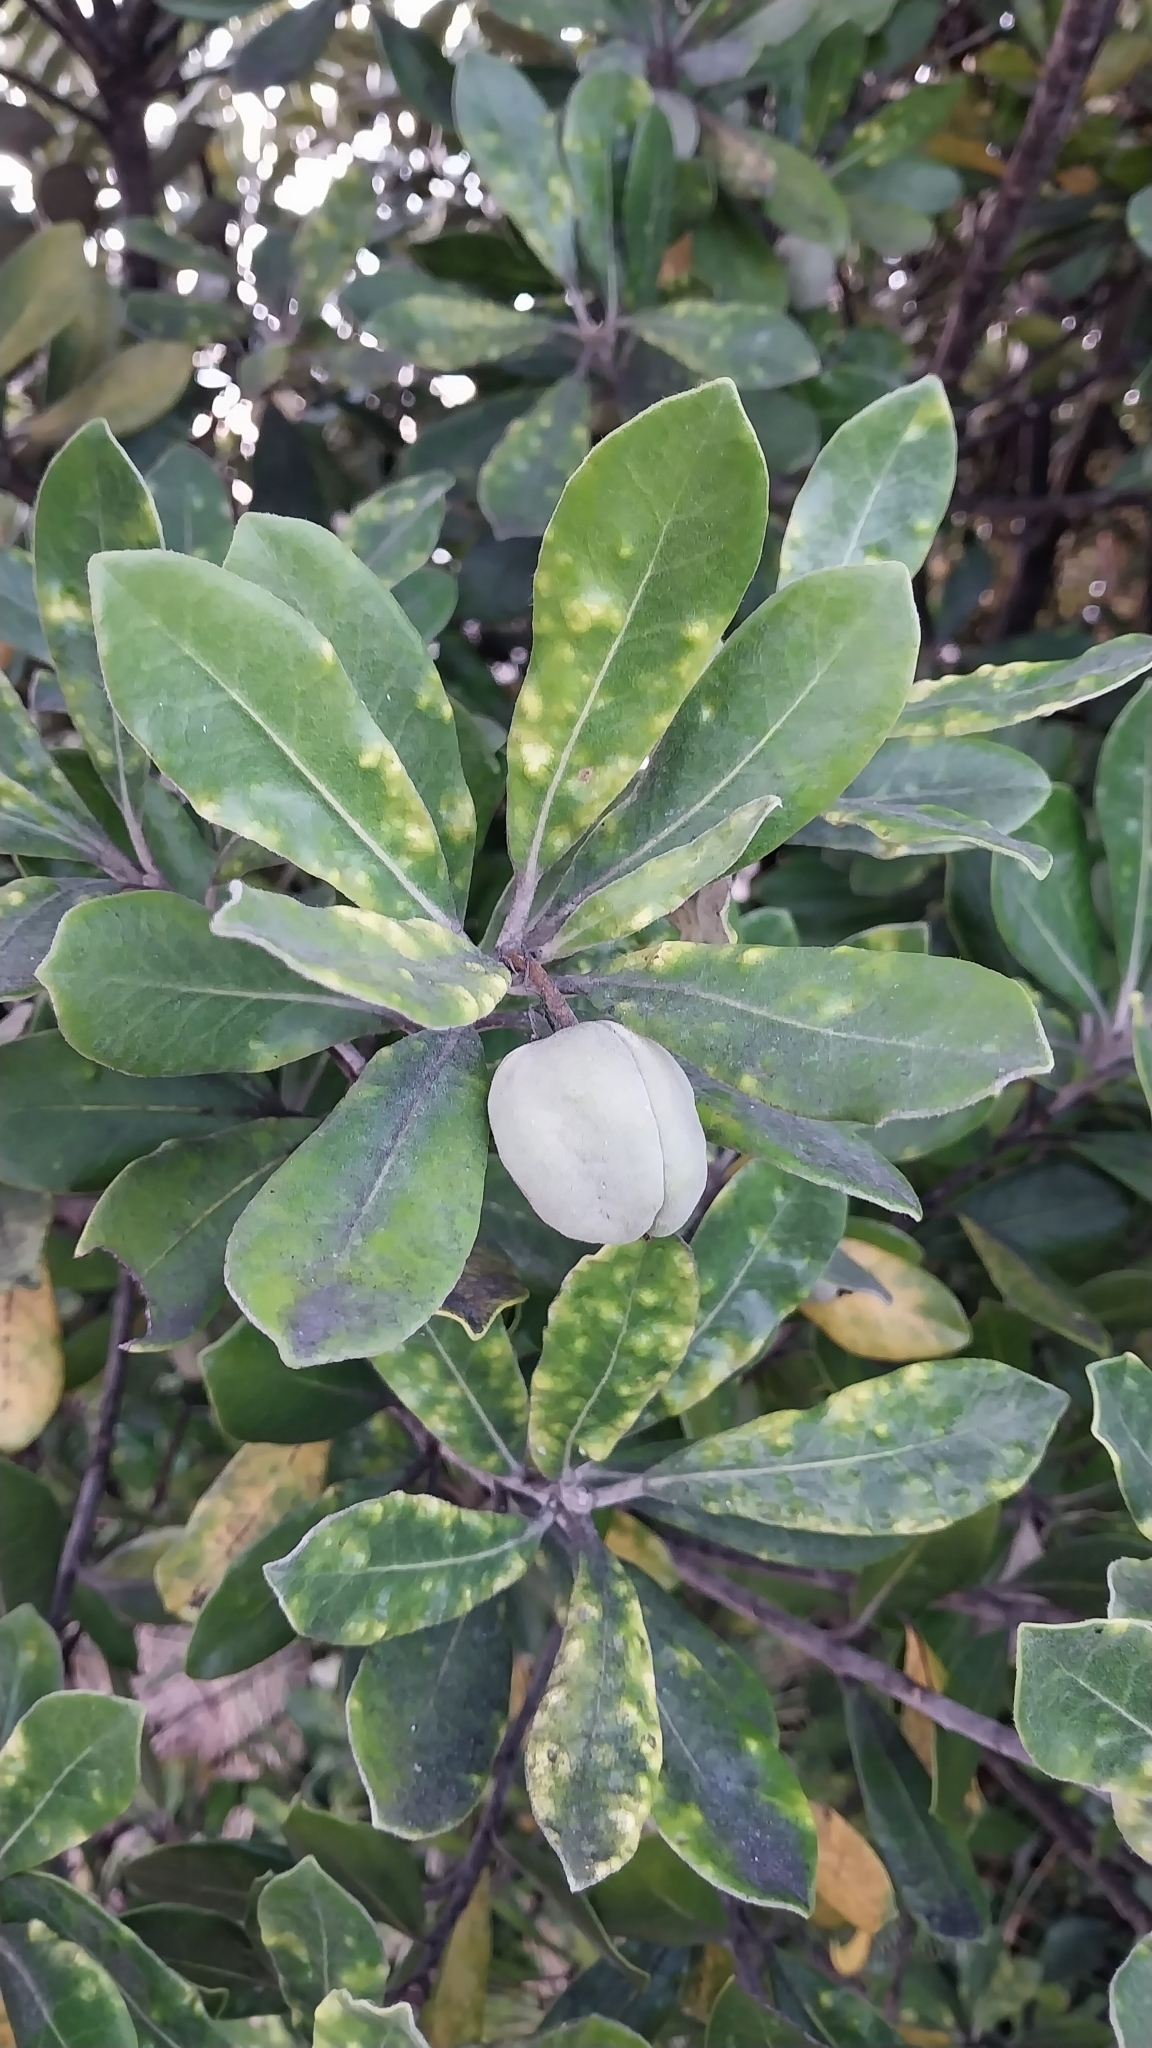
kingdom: Plantae
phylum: Tracheophyta
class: Magnoliopsida
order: Apiales
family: Pittosporaceae
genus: Pittosporum
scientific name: Pittosporum crassifolium
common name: Karo
